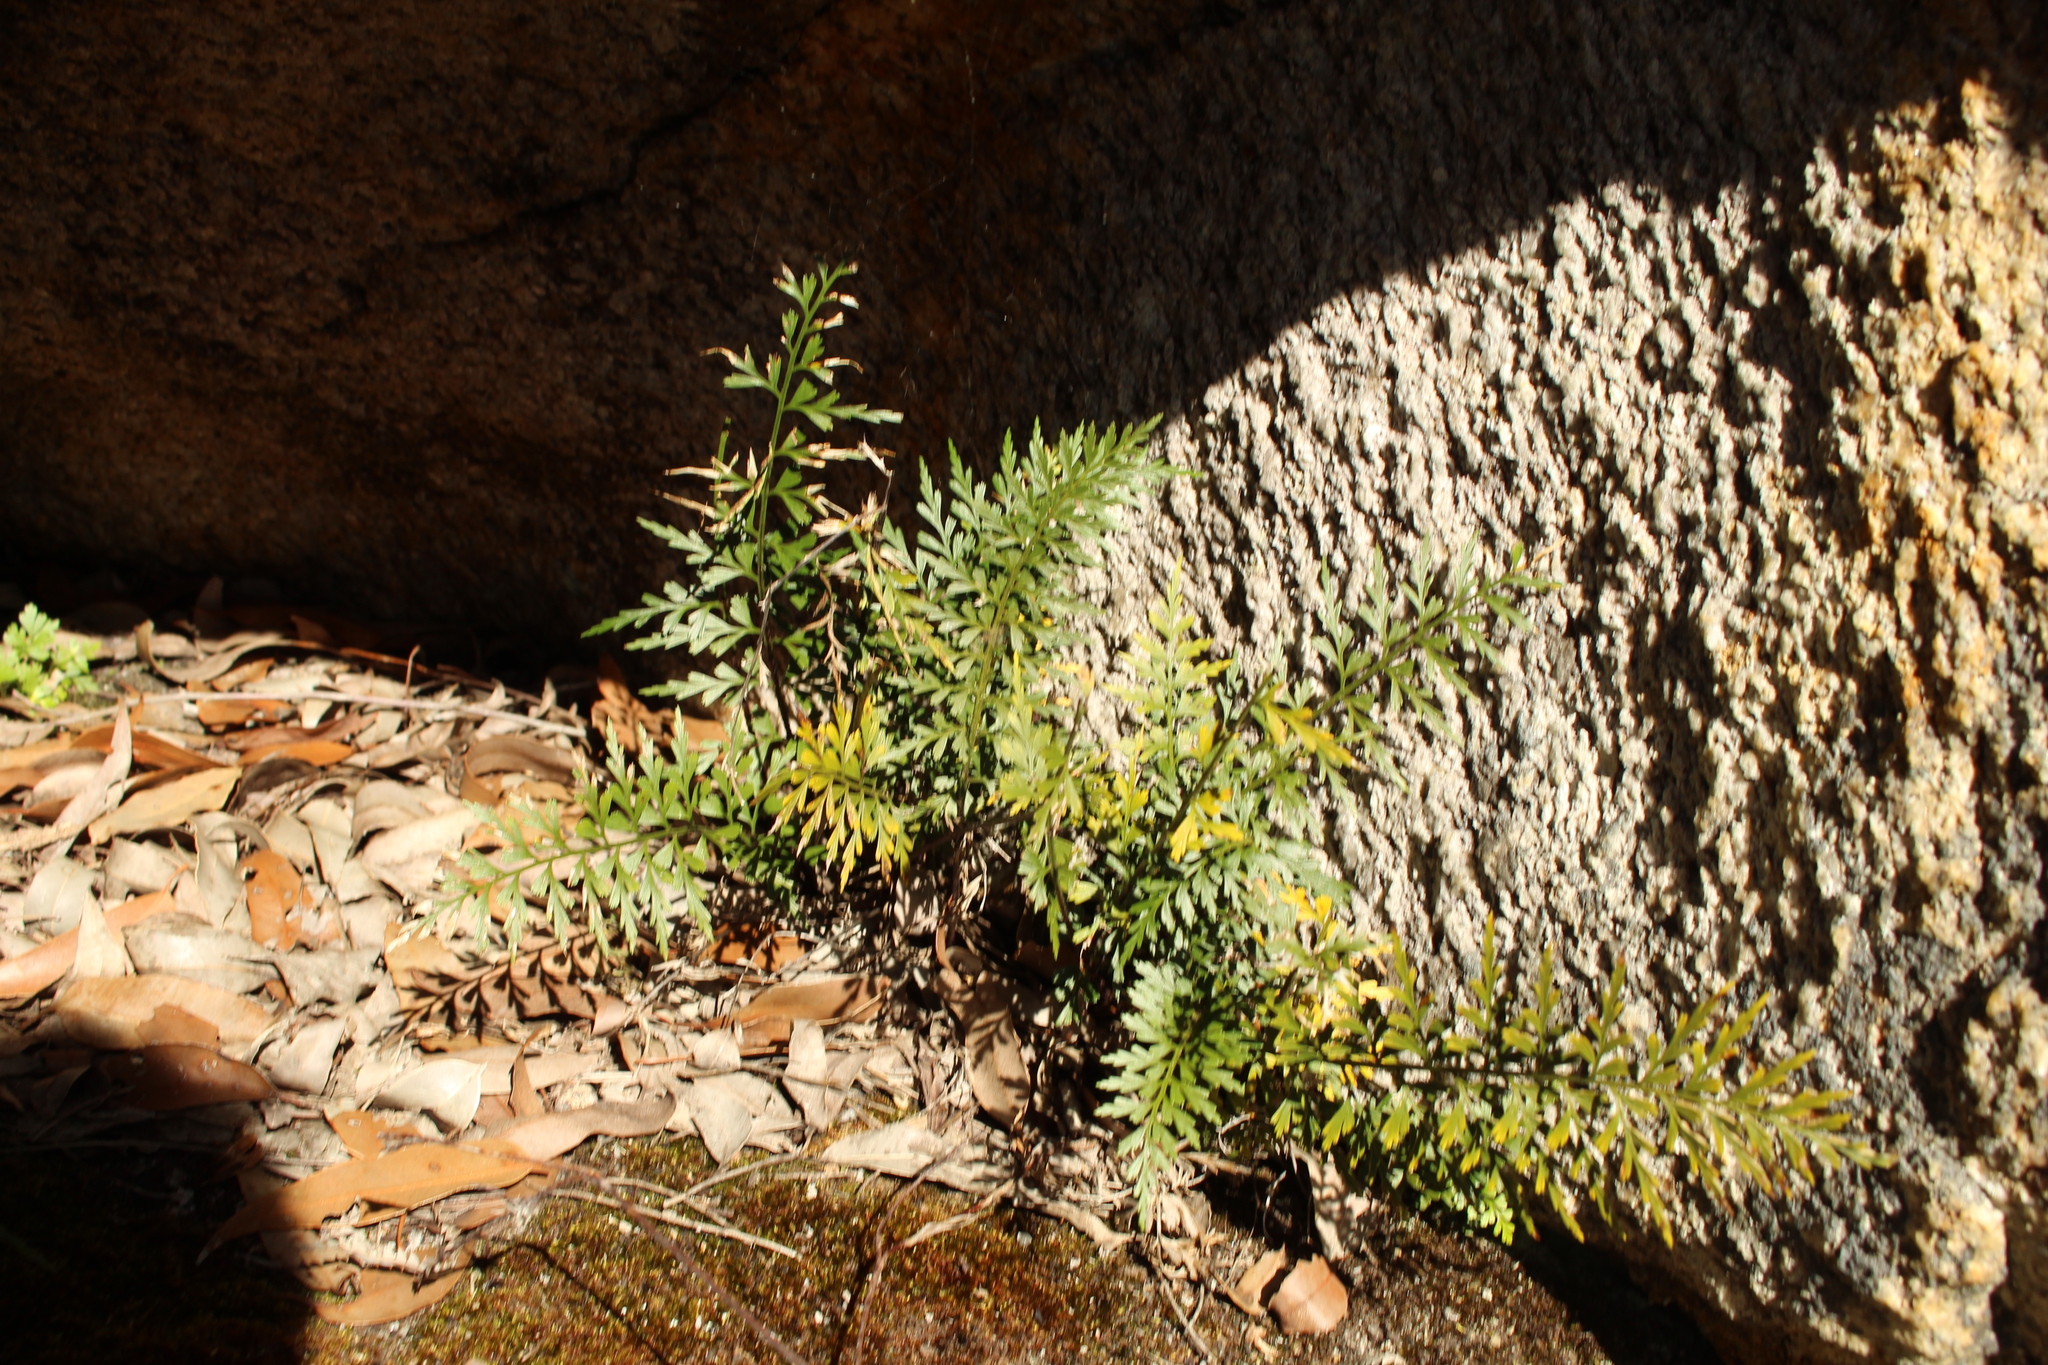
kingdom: Plantae
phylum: Tracheophyta
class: Polypodiopsida
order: Polypodiales
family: Aspleniaceae
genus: Asplenium
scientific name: Asplenium aethiopicum
